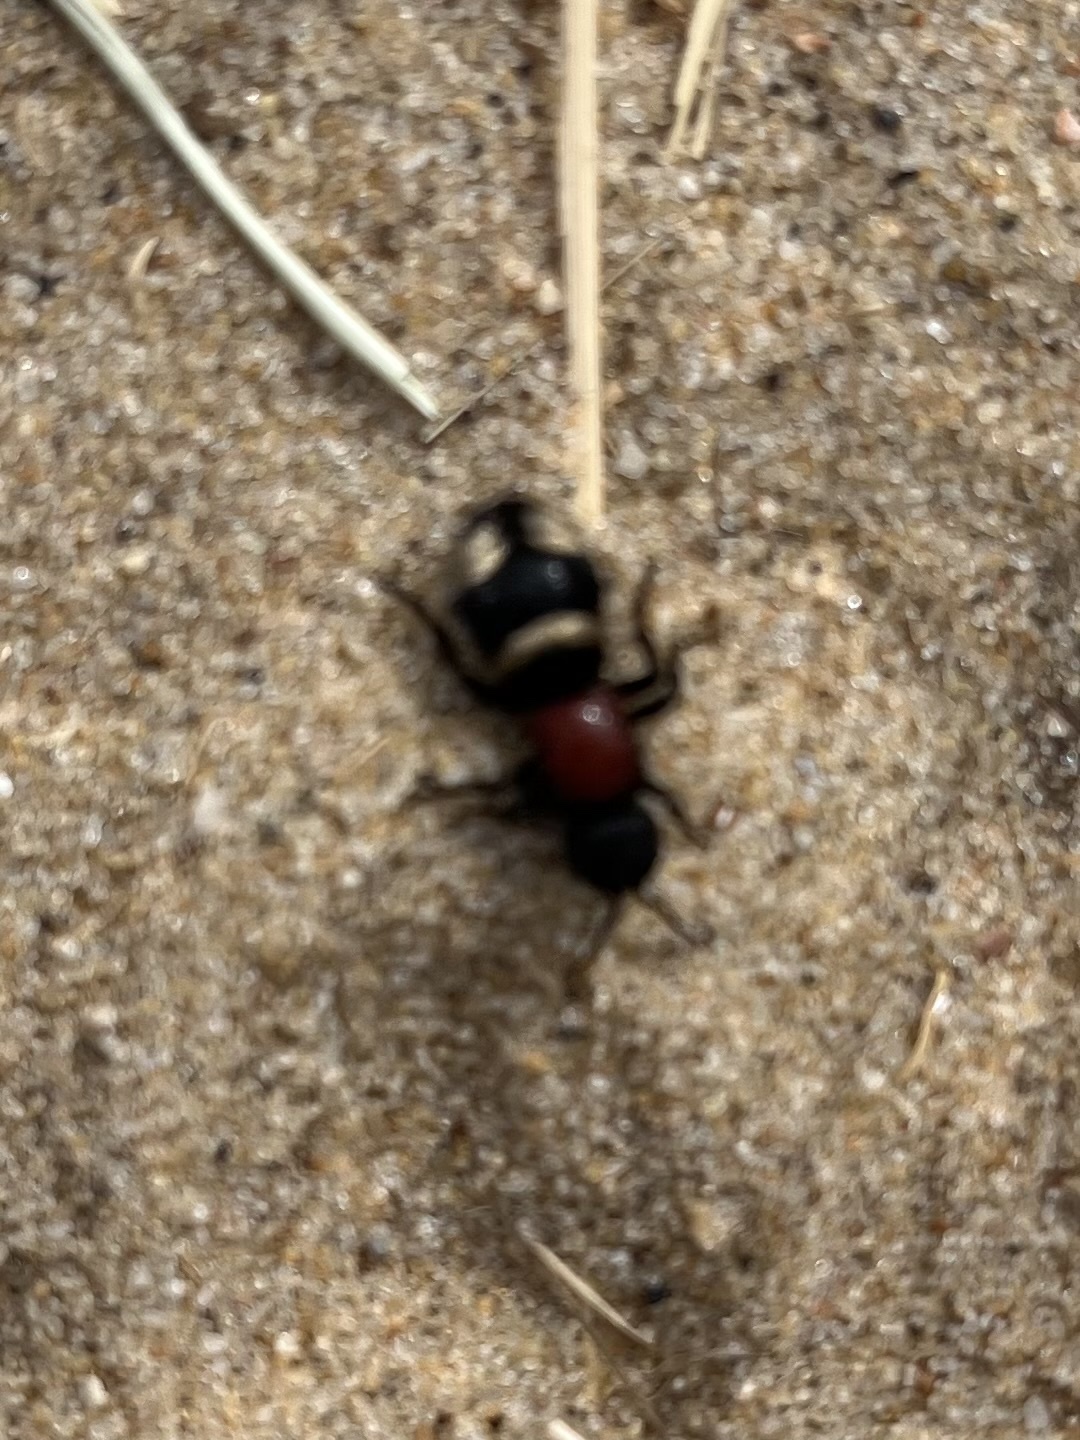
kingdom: Animalia
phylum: Arthropoda
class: Insecta
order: Hymenoptera
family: Mutillidae
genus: Mutilla
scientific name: Mutilla europaea
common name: Large velvet ant
